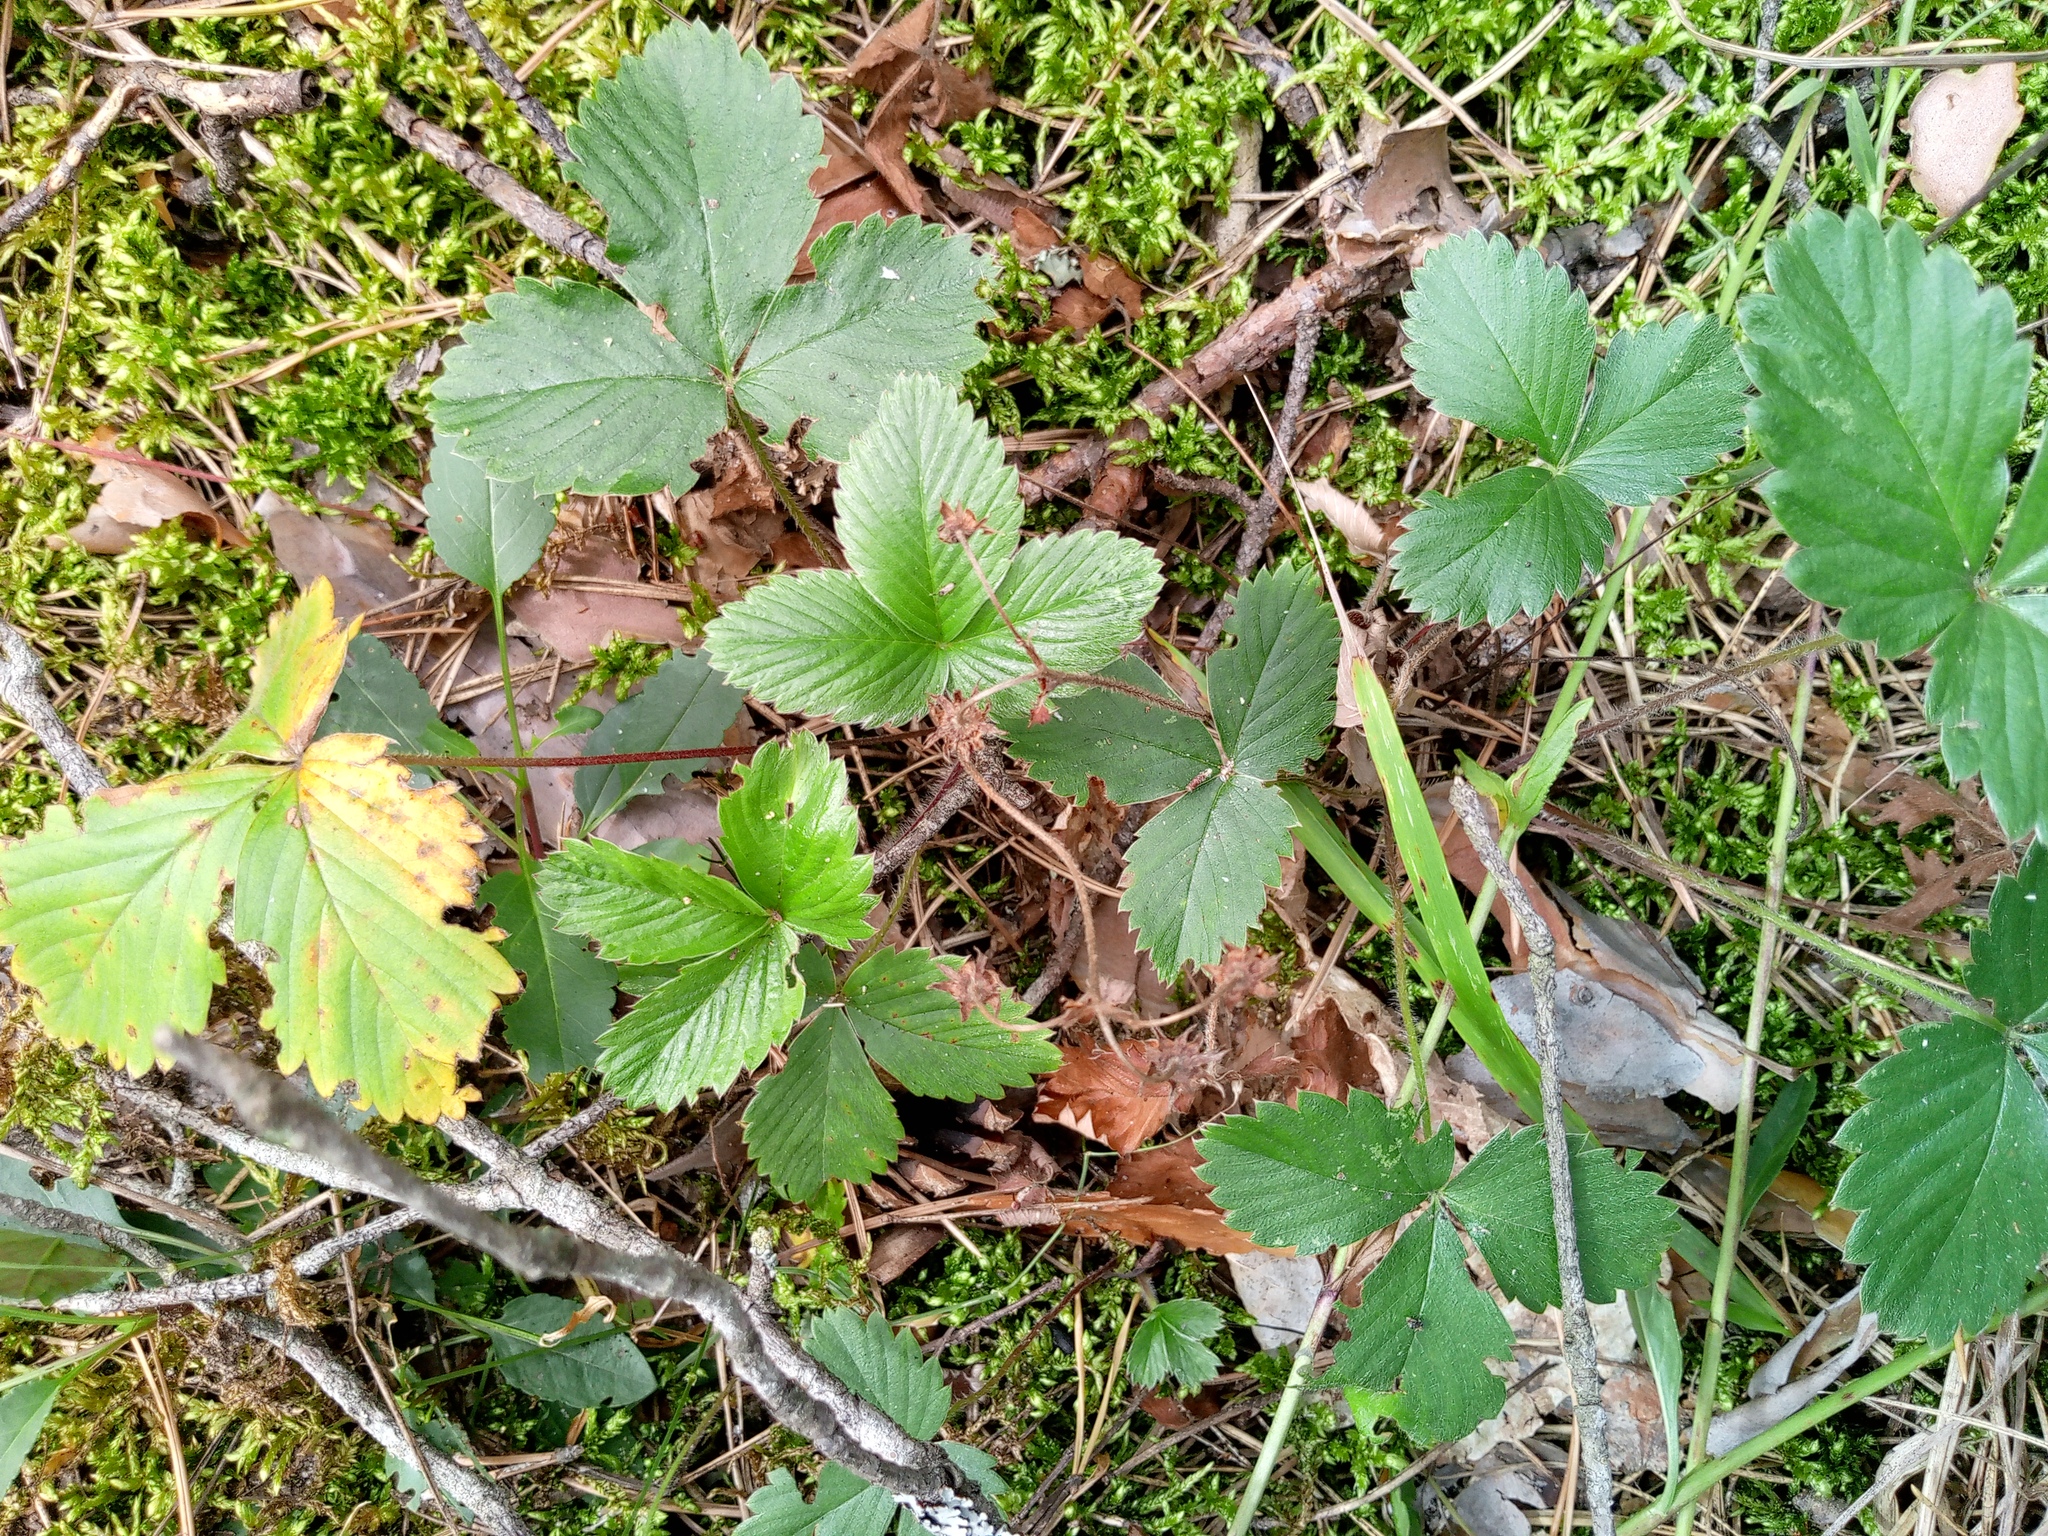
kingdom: Plantae
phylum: Tracheophyta
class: Magnoliopsida
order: Rosales
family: Rosaceae
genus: Fragaria
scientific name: Fragaria vesca
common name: Wild strawberry
